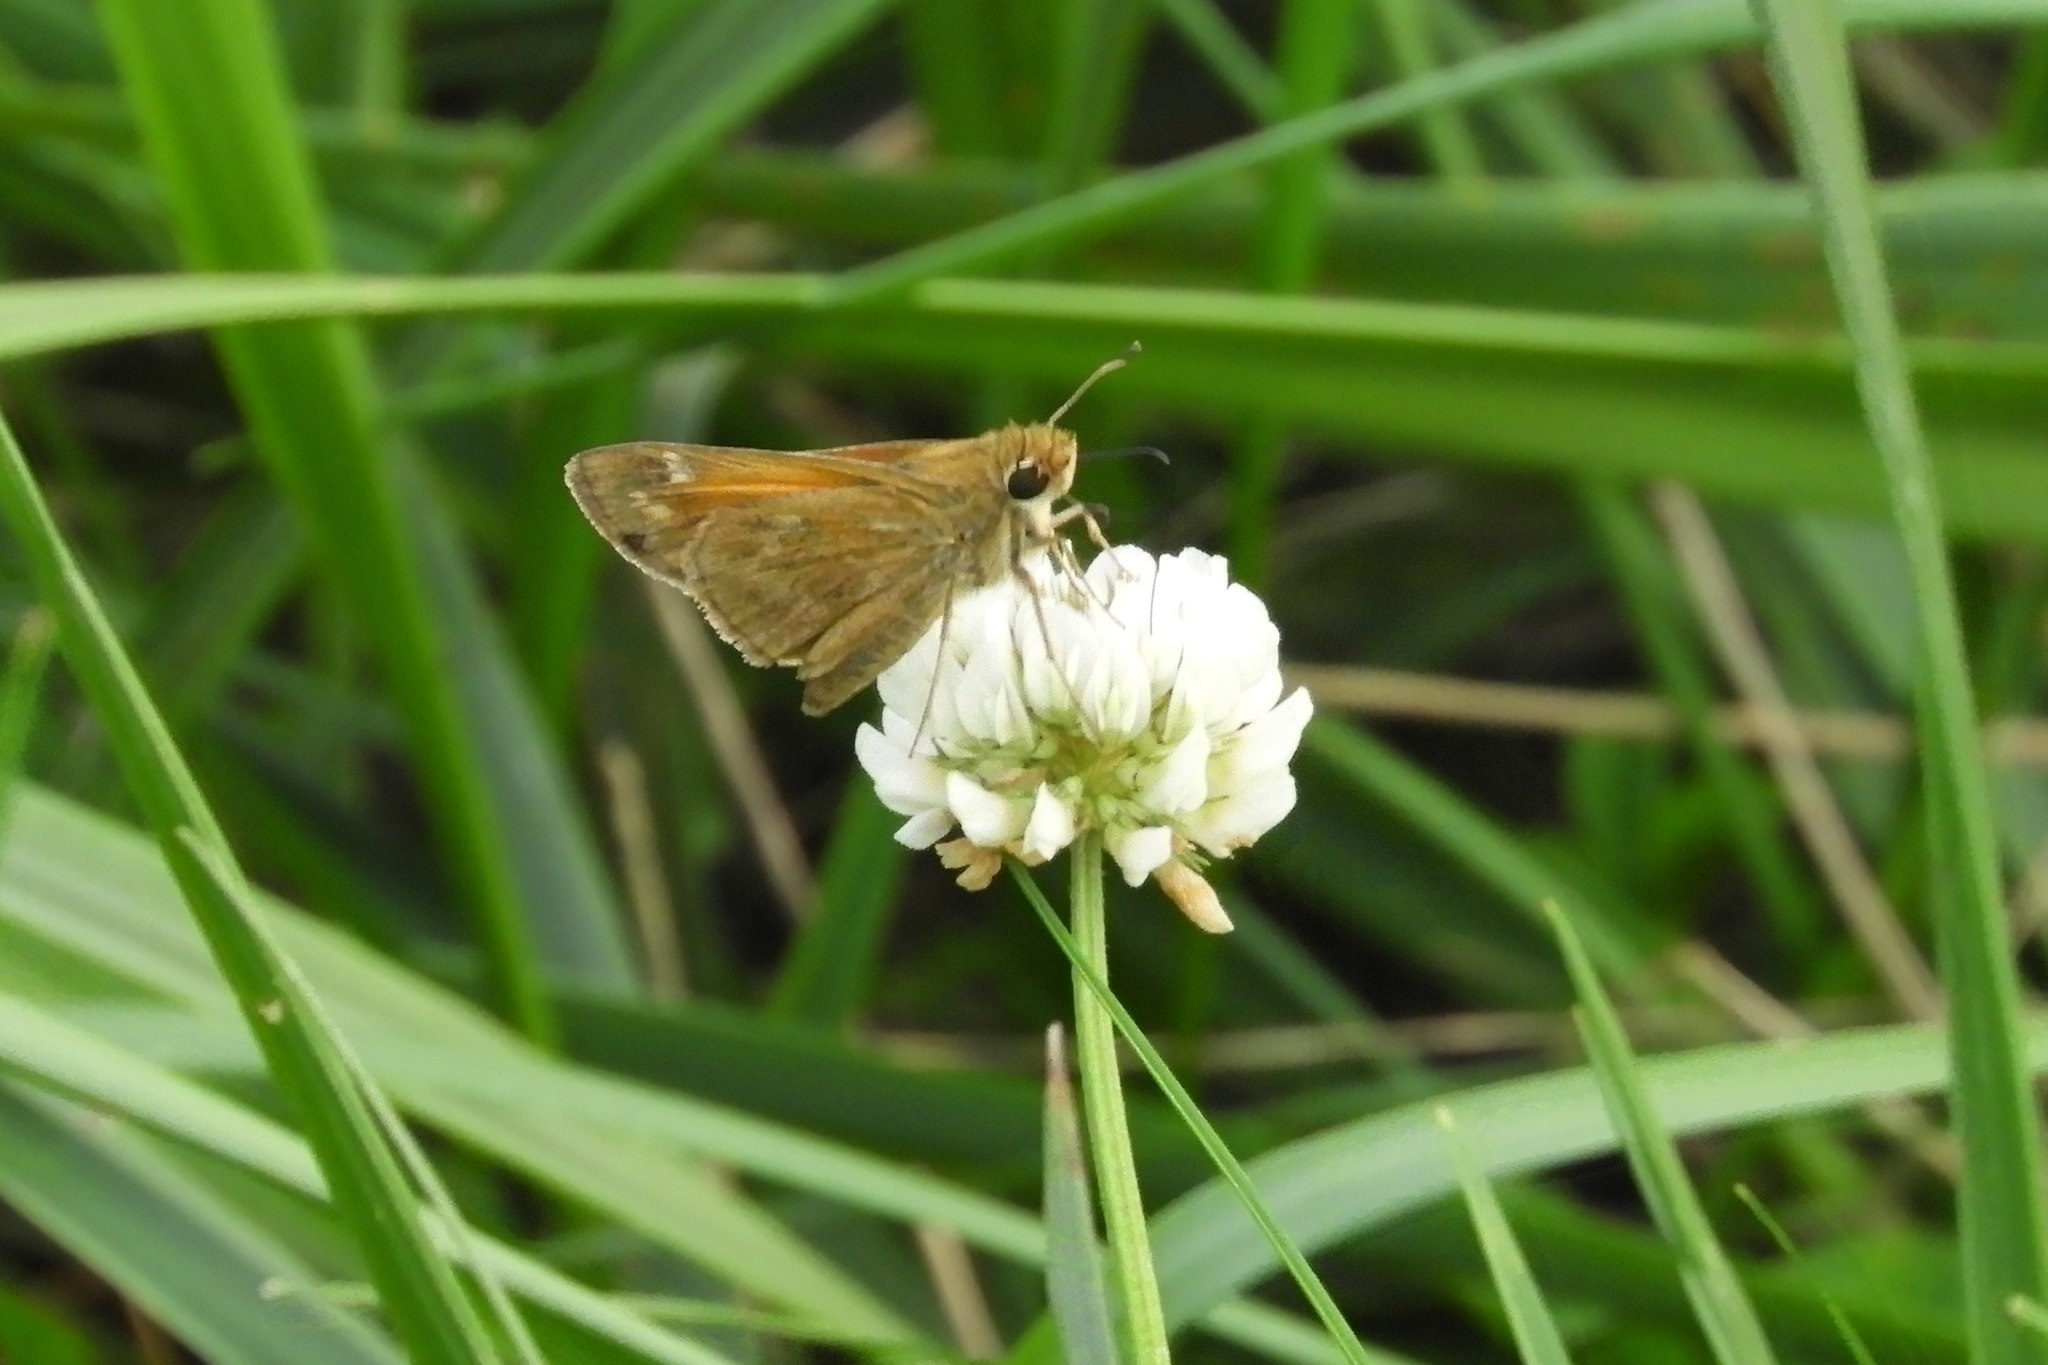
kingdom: Animalia
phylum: Arthropoda
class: Insecta
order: Lepidoptera
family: Hesperiidae
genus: Atalopedes
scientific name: Atalopedes
